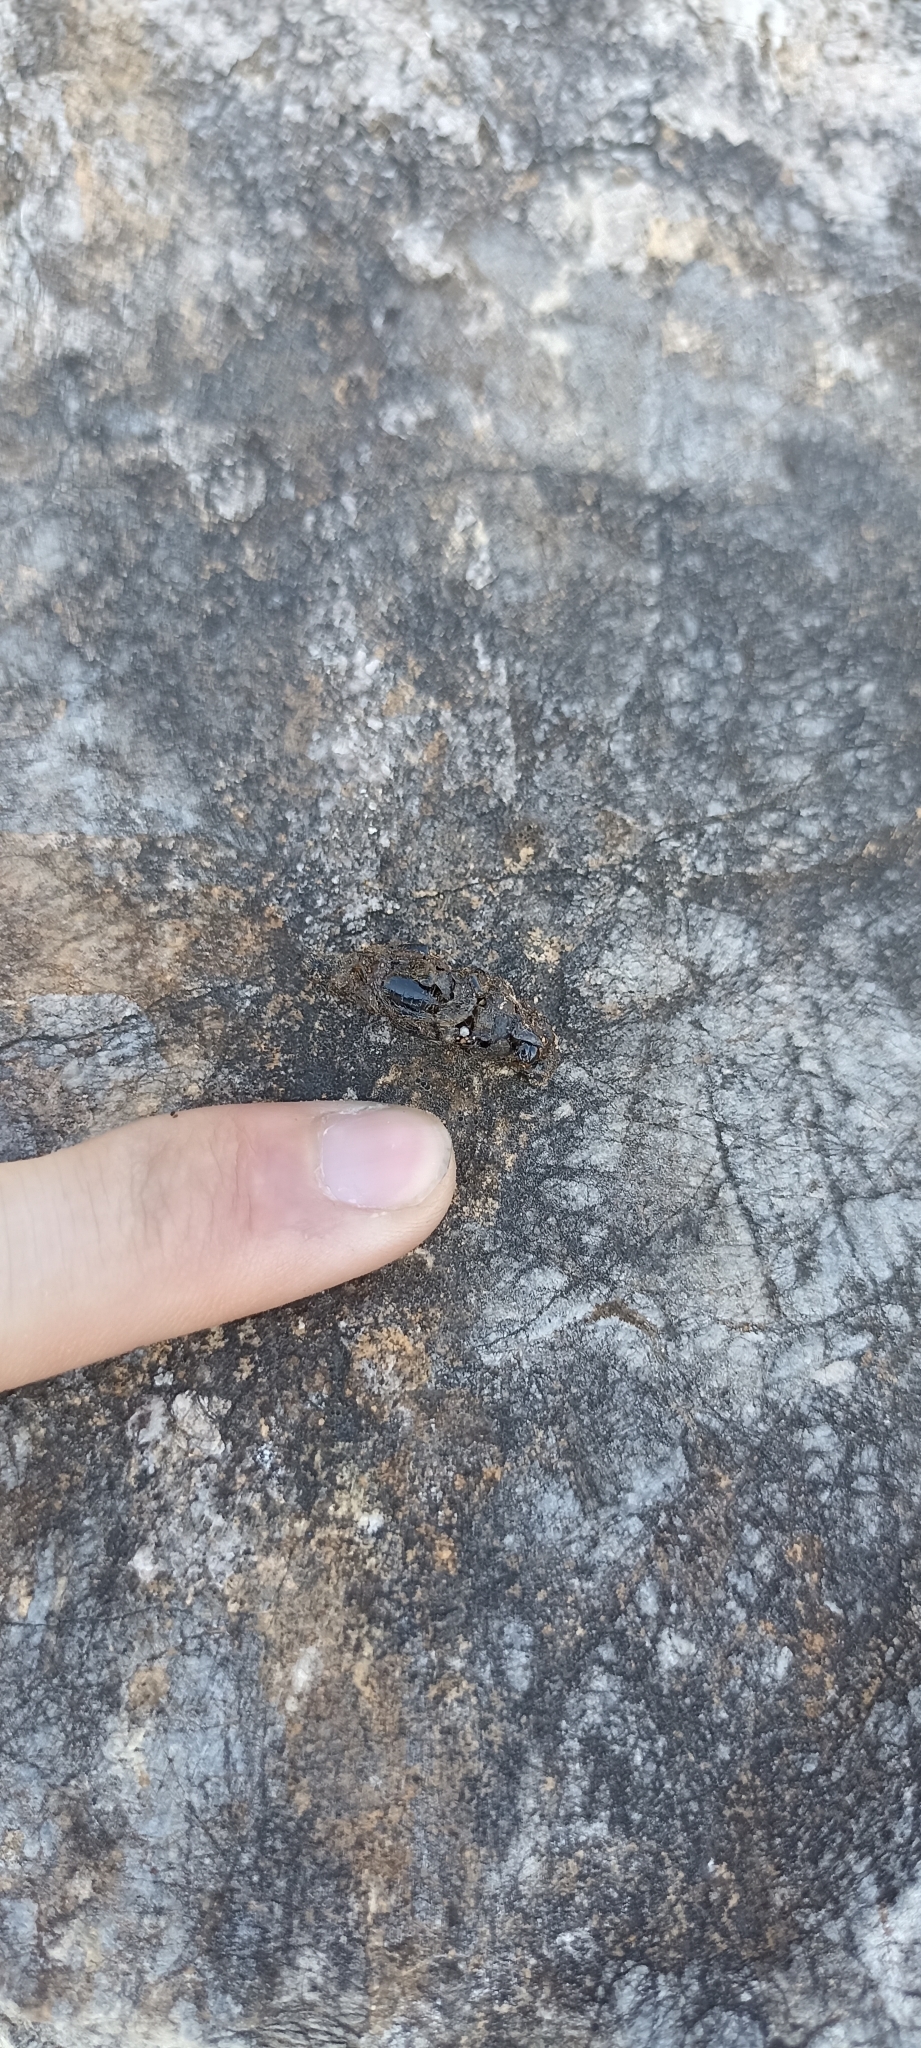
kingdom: Animalia
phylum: Chordata
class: Squamata
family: Lacertidae
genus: Timon
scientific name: Timon lepidus
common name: Ocellated lizard
